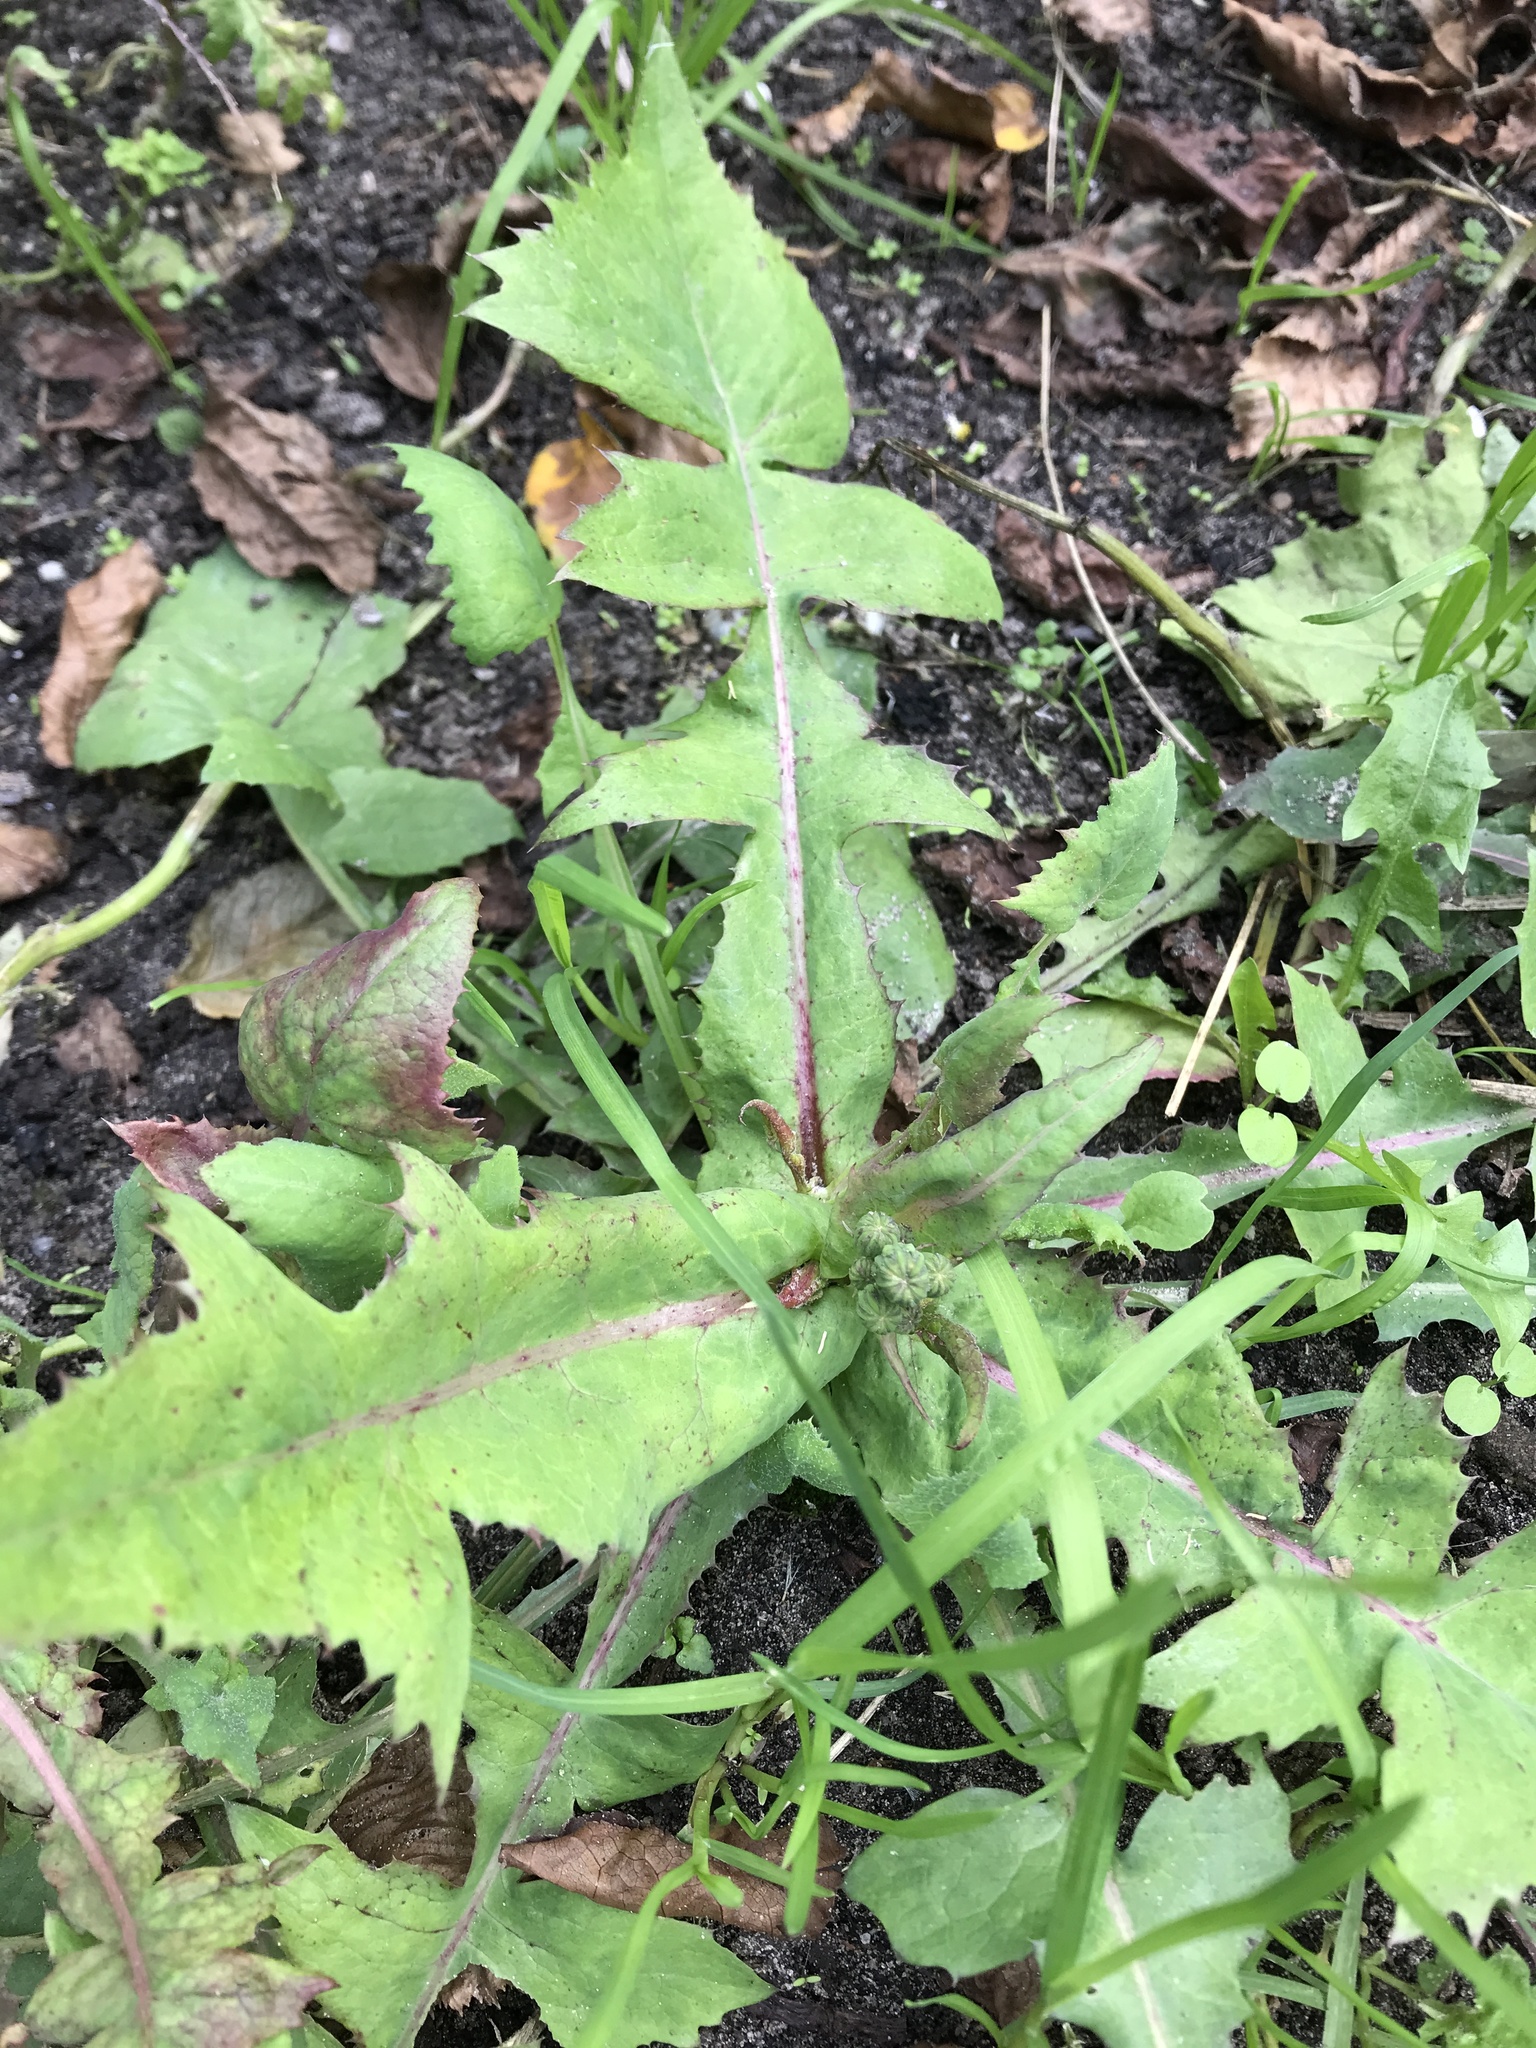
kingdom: Plantae
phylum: Tracheophyta
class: Magnoliopsida
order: Asterales
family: Asteraceae
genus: Sonchus
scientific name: Sonchus oleraceus
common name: Common sowthistle
